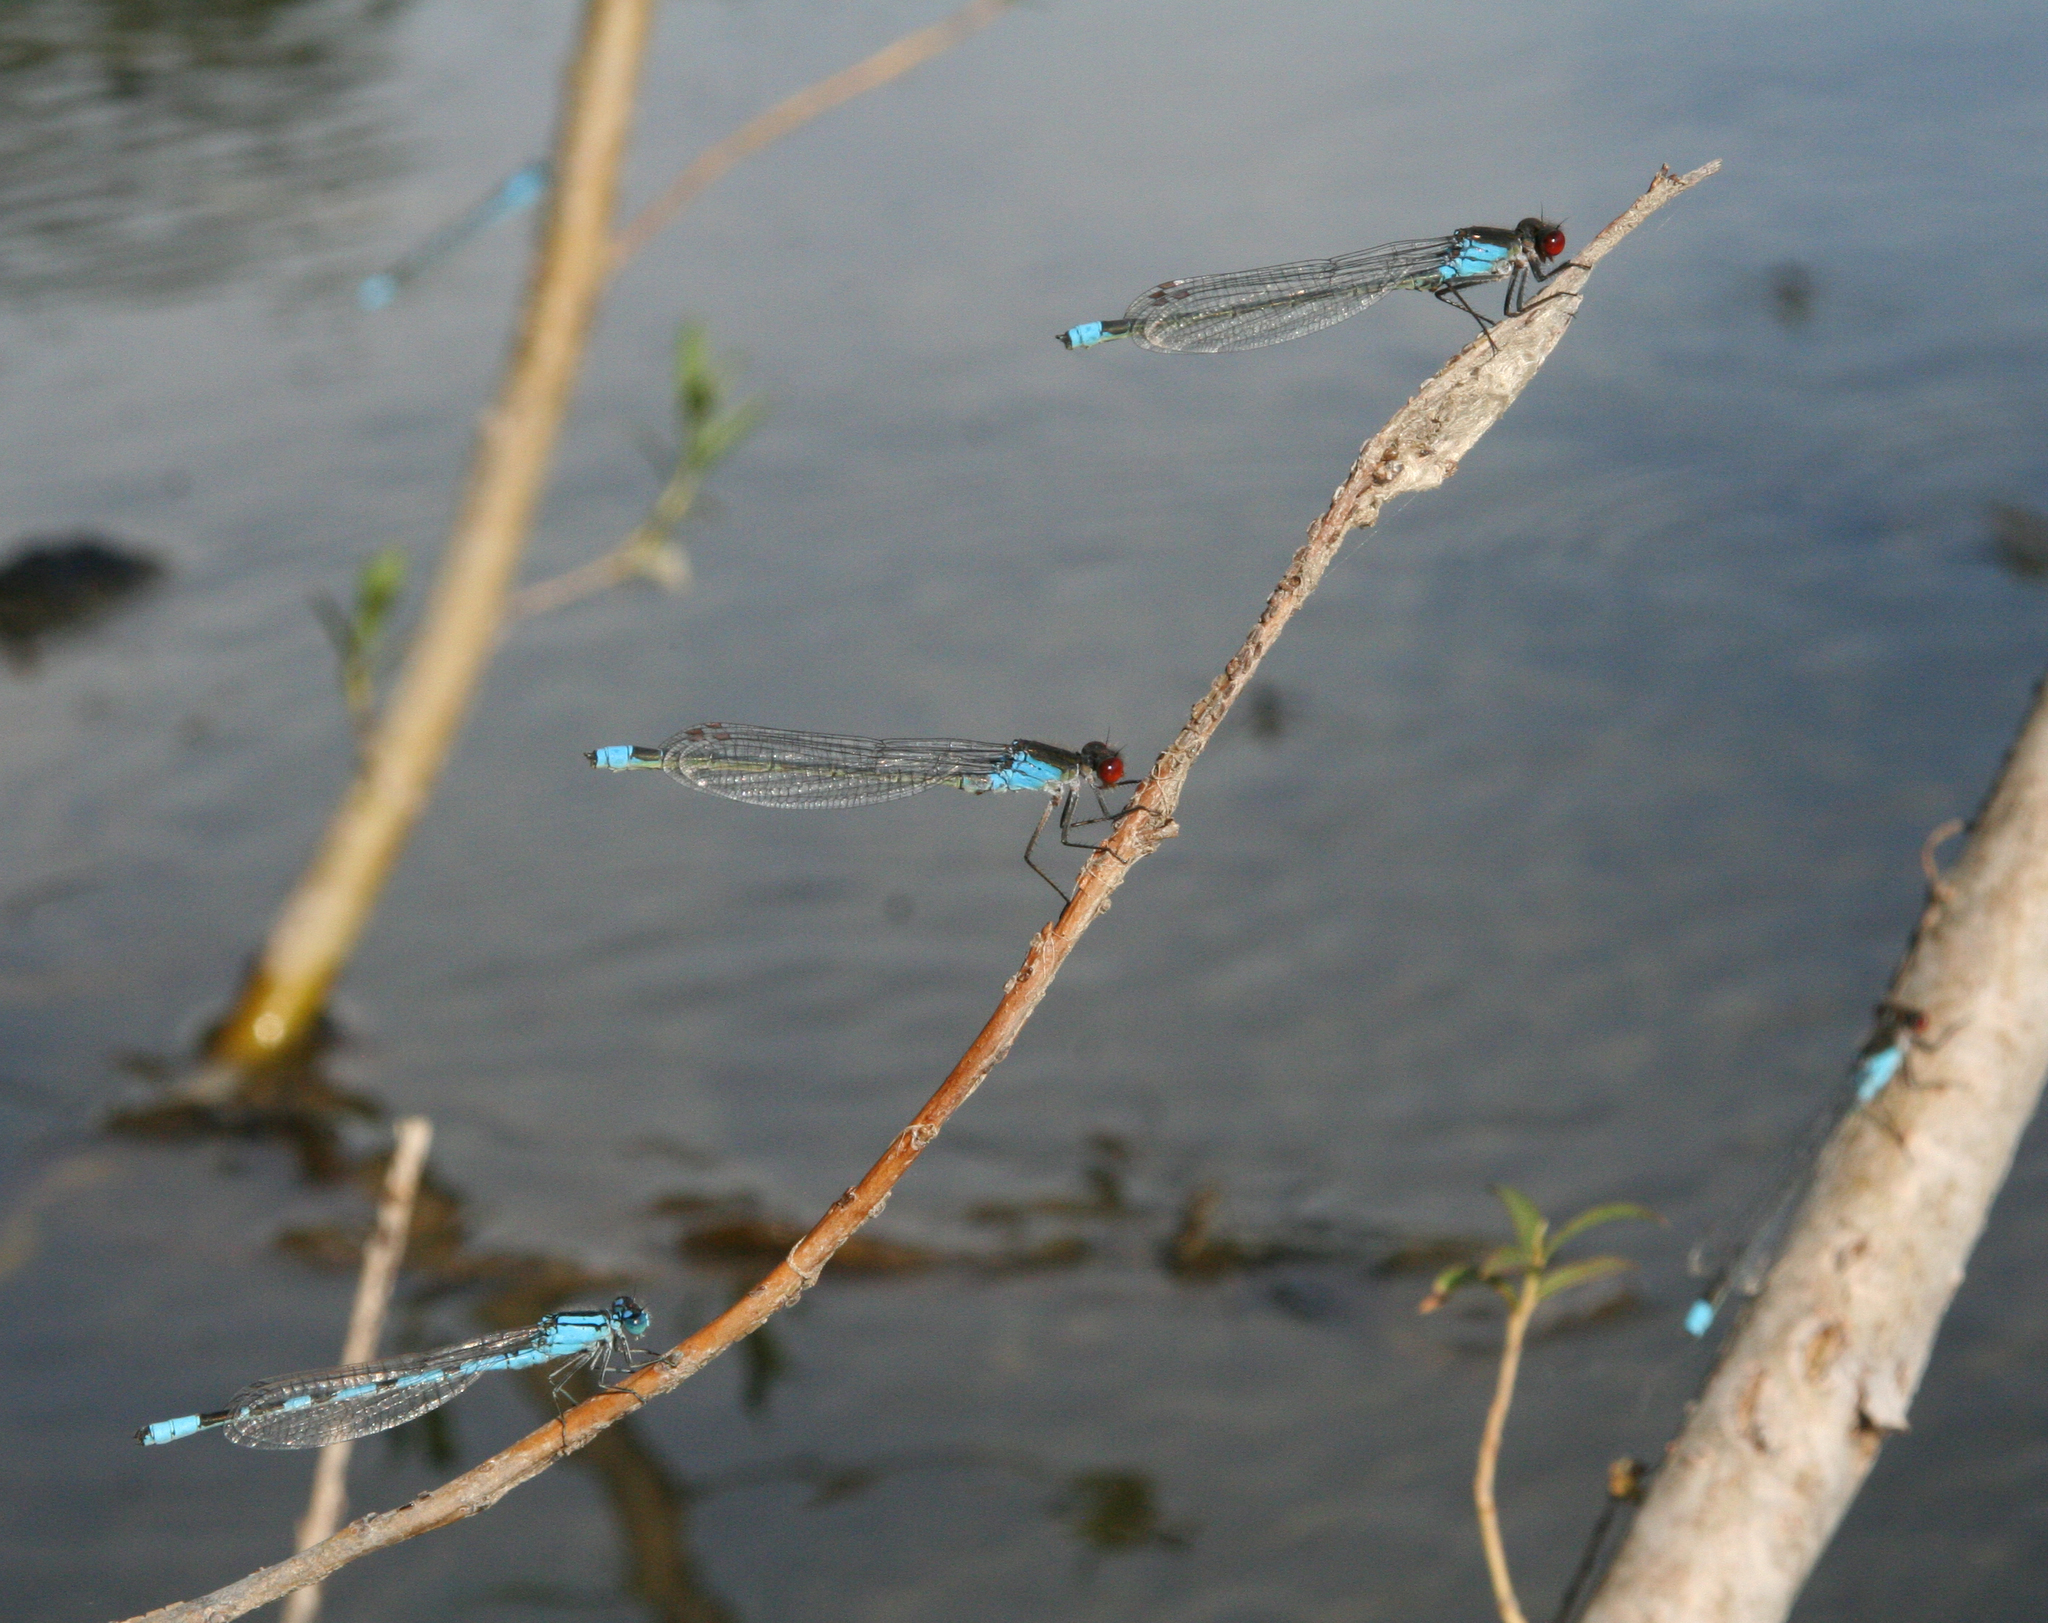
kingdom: Animalia
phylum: Arthropoda
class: Insecta
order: Odonata
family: Coenagrionidae
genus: Enallagma
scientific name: Enallagma cyathigerum
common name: Common blue damselfly
